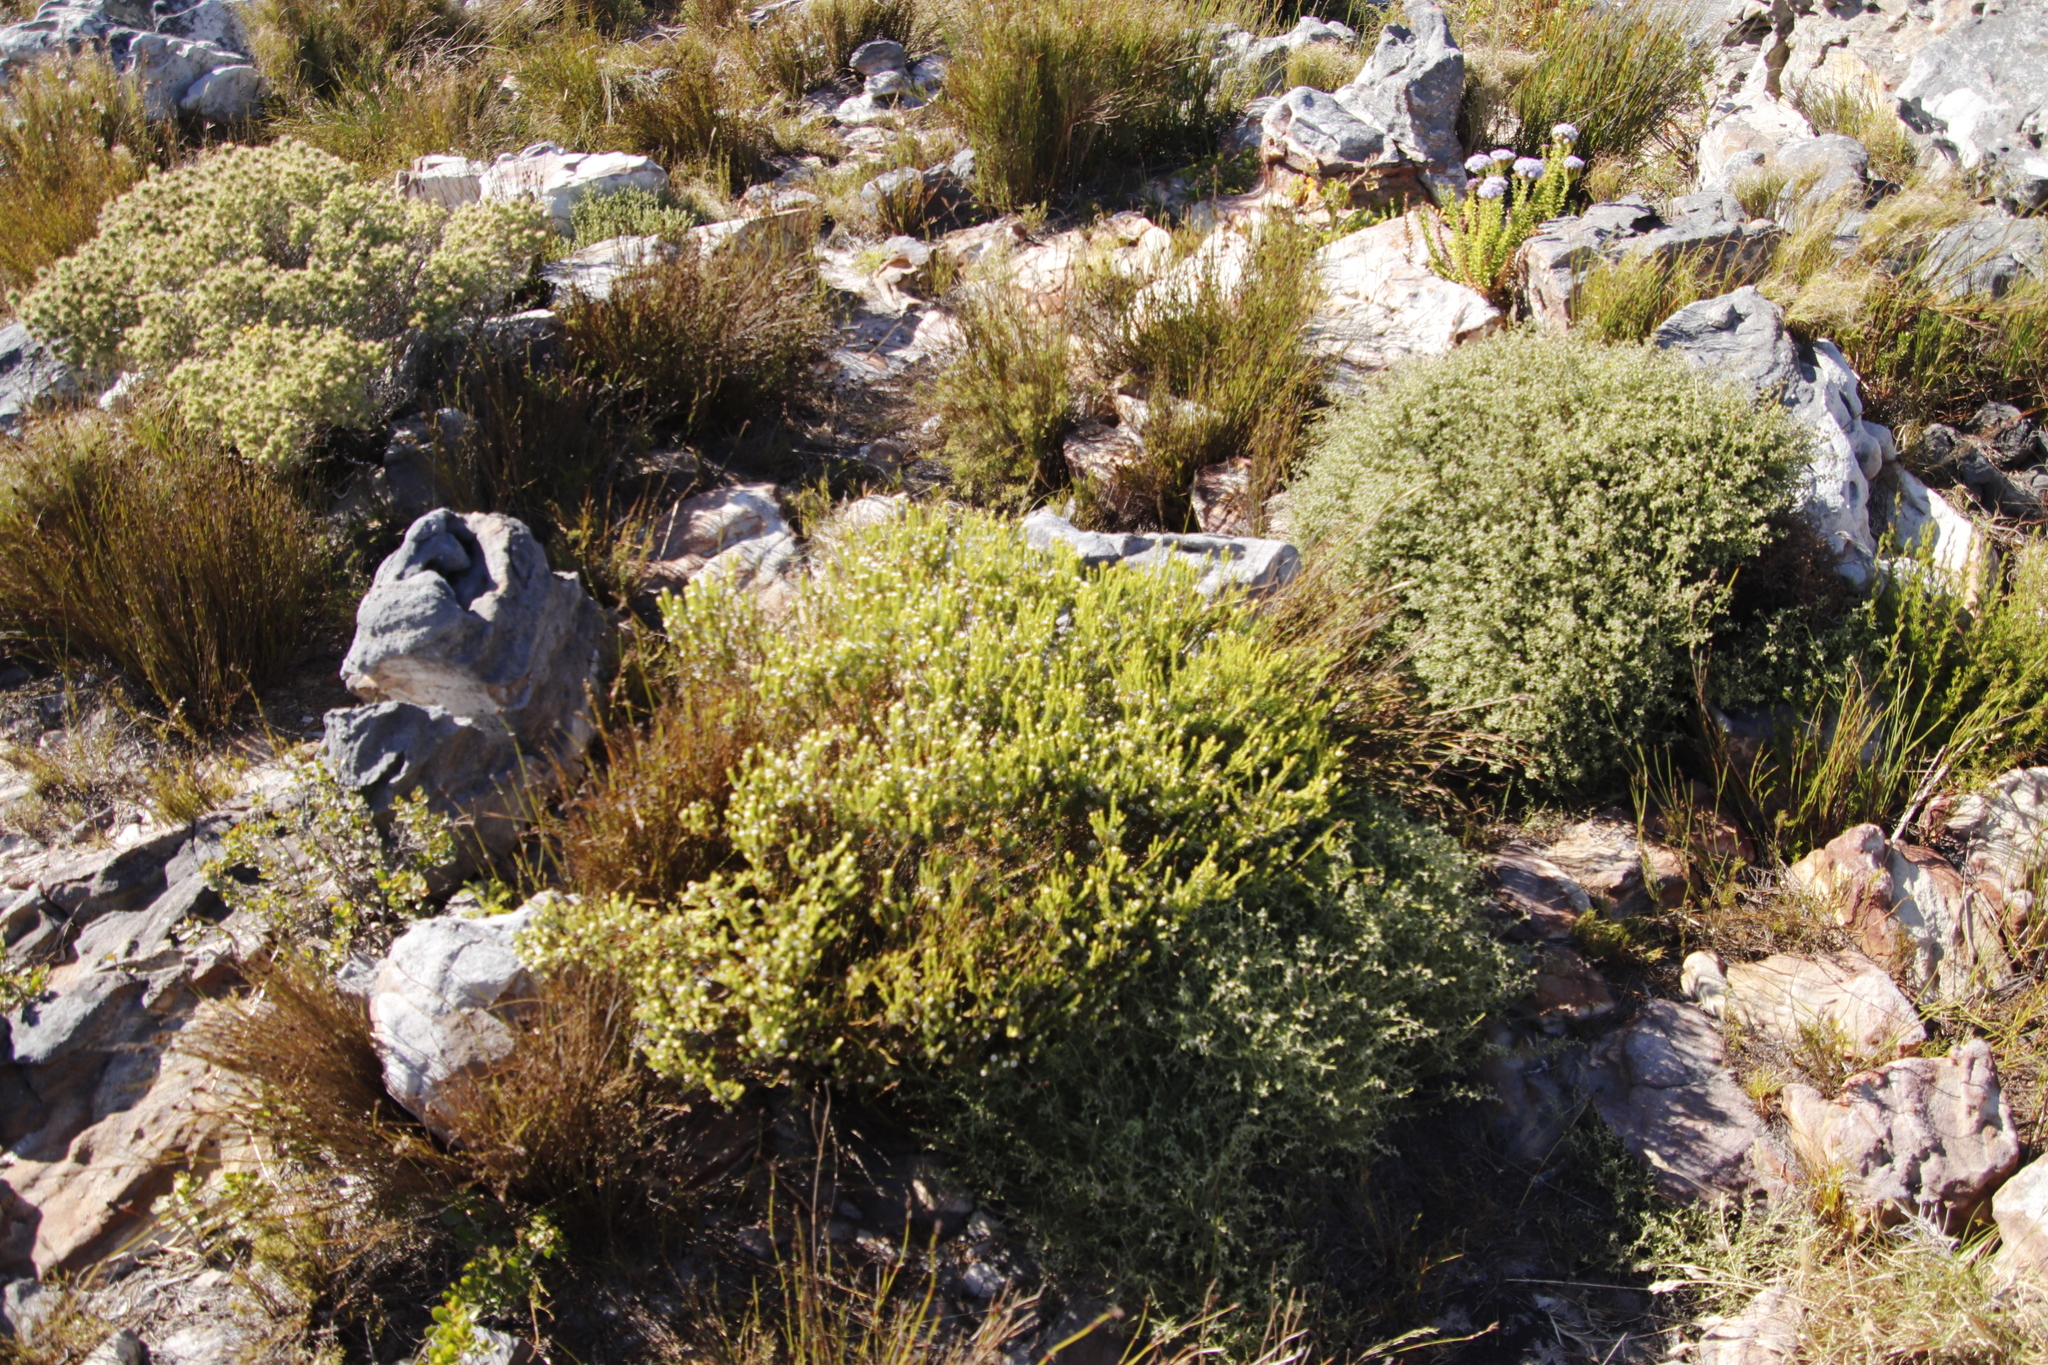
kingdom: Plantae
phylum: Tracheophyta
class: Magnoliopsida
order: Bruniales
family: Bruniaceae
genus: Staavia
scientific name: Staavia radiata
